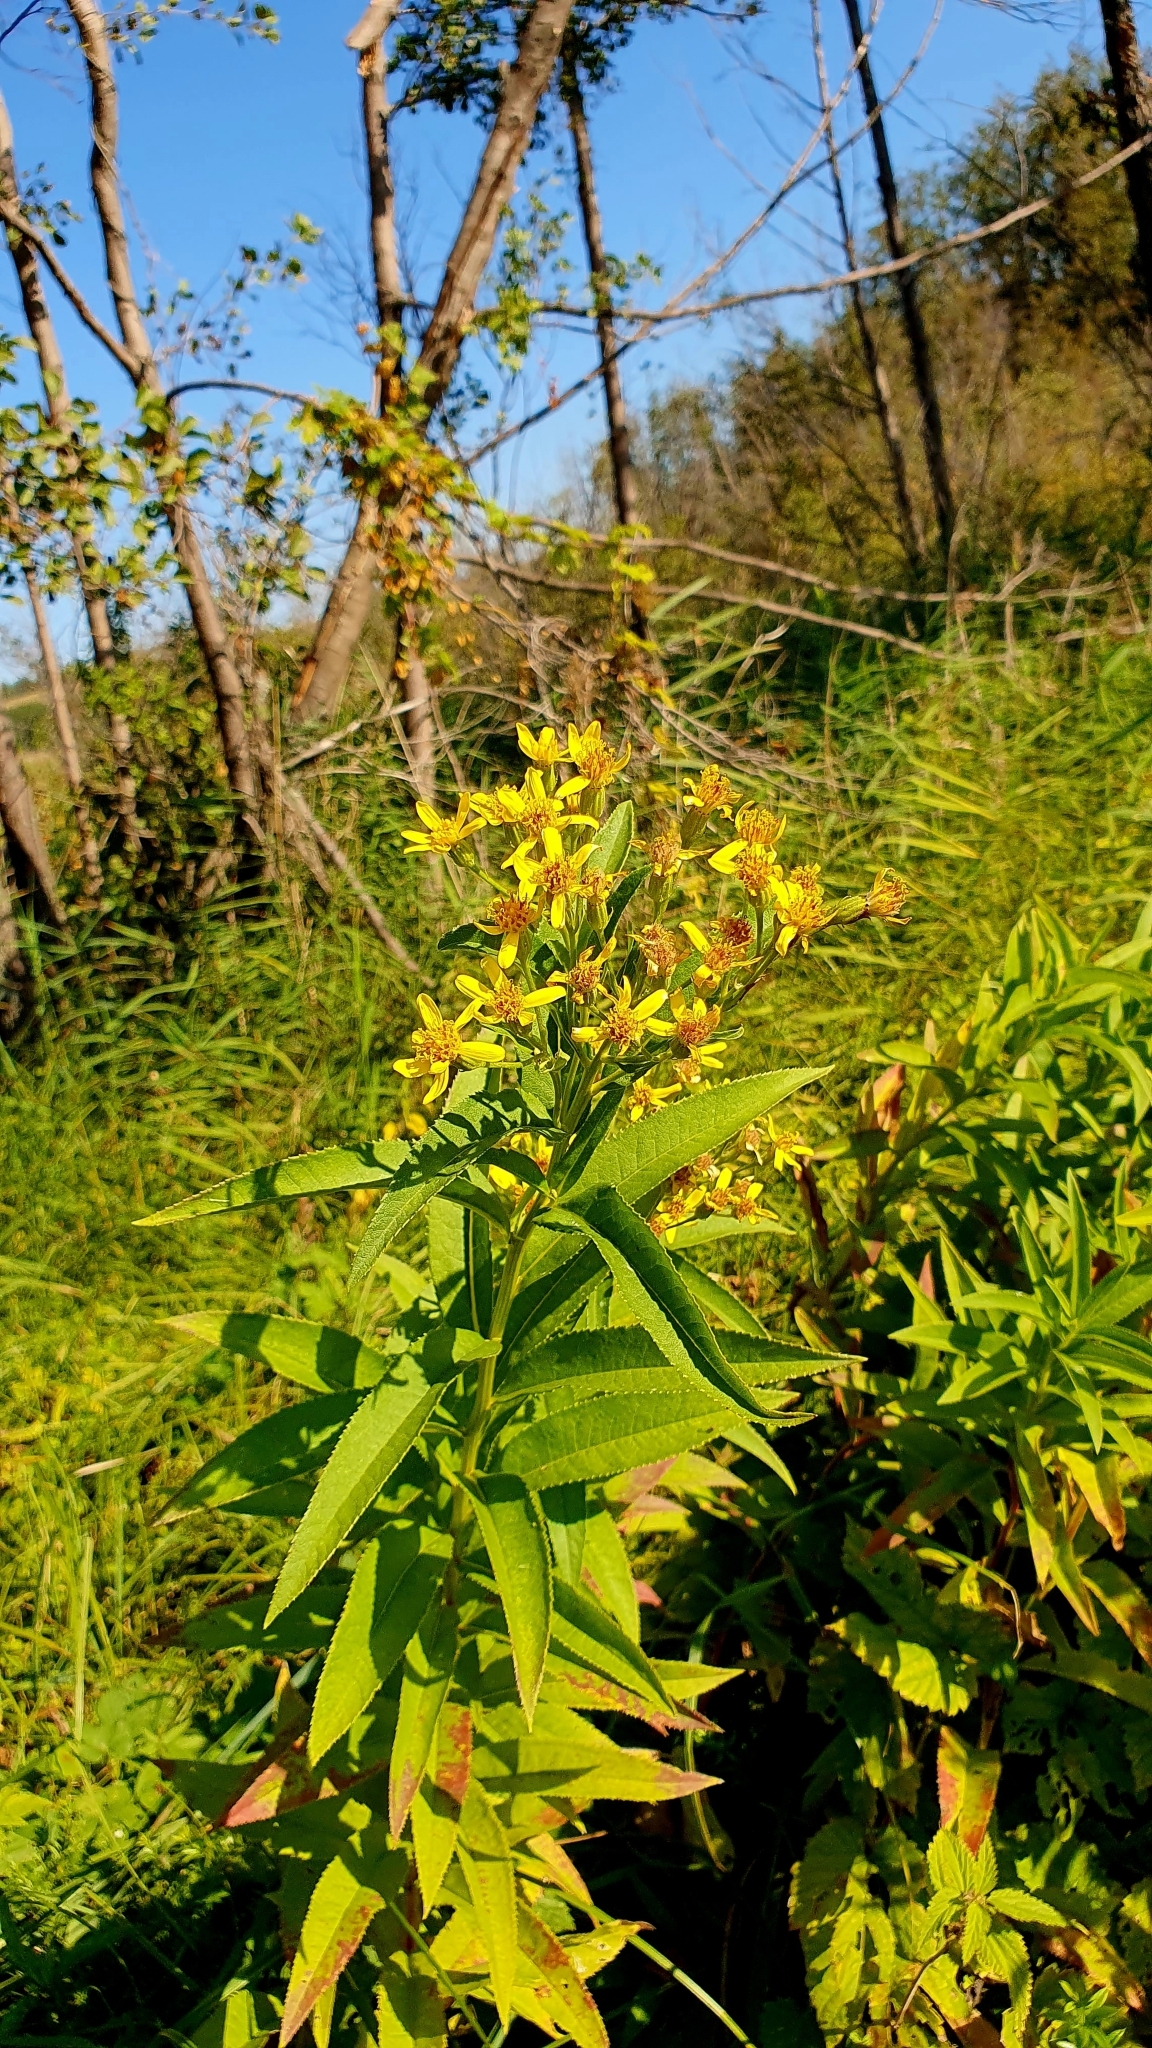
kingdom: Plantae
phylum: Tracheophyta
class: Magnoliopsida
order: Asterales
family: Asteraceae
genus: Senecio
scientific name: Senecio sarracenicus
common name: Broad-leaved ragwort
